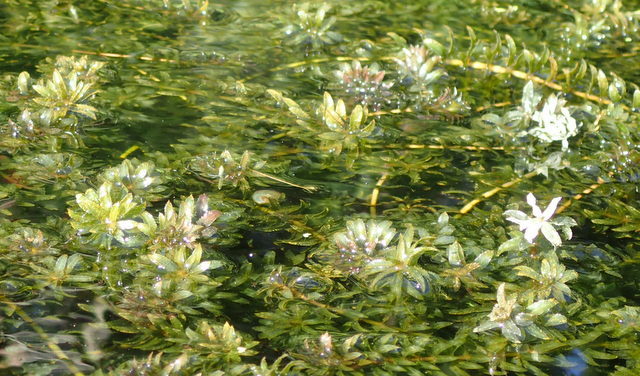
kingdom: Plantae
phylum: Tracheophyta
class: Liliopsida
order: Alismatales
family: Hydrocharitaceae
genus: Hydrilla
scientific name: Hydrilla verticillata
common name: Florida-elodea
